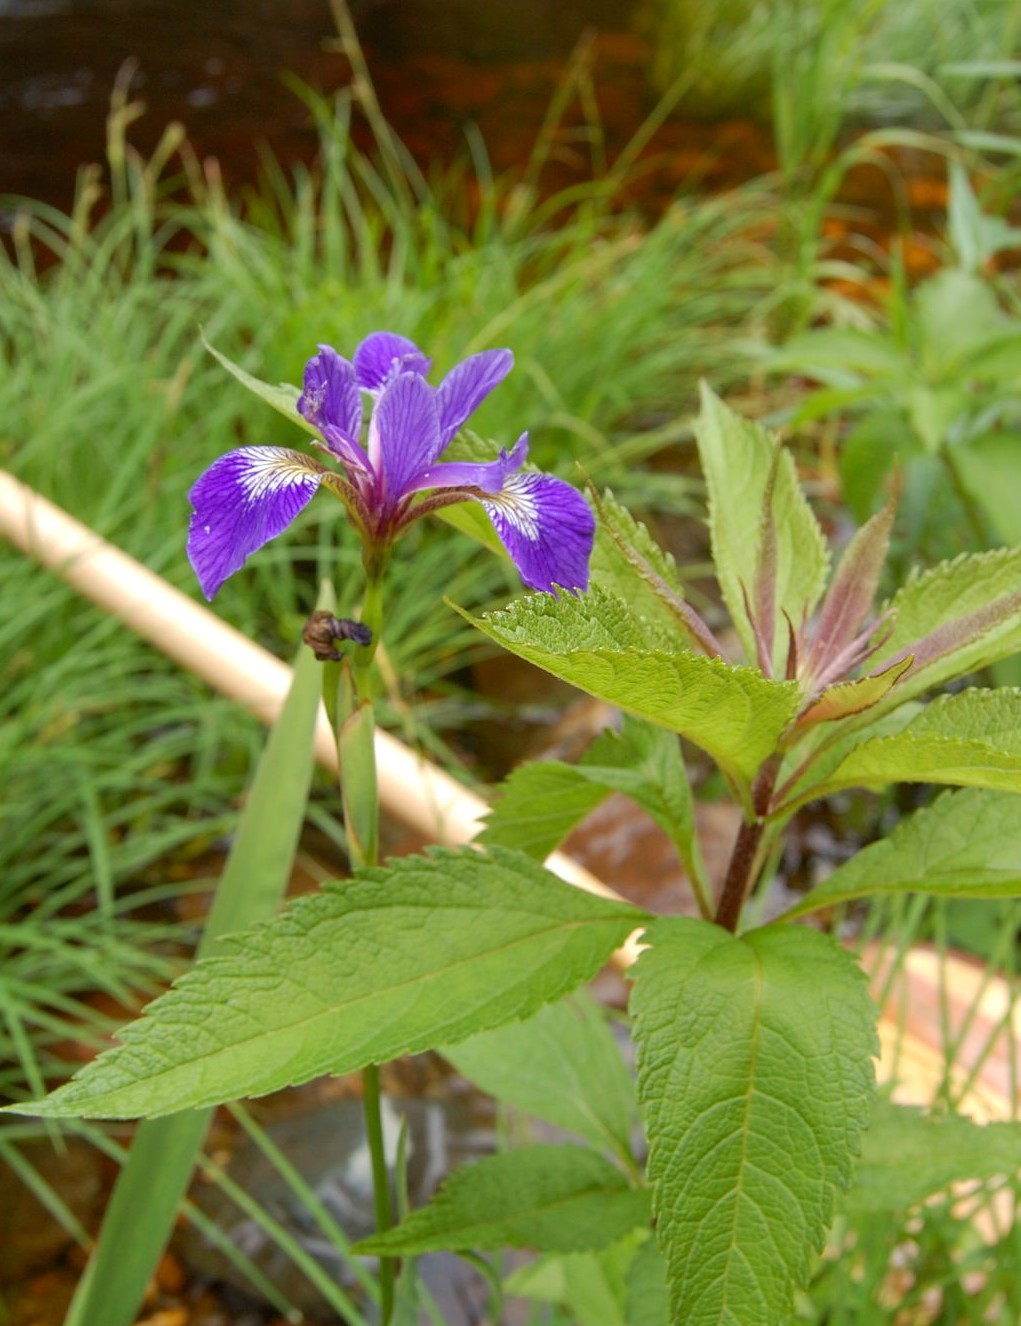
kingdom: Plantae
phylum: Tracheophyta
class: Liliopsida
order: Asparagales
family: Iridaceae
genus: Iris
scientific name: Iris versicolor
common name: Purple iris
